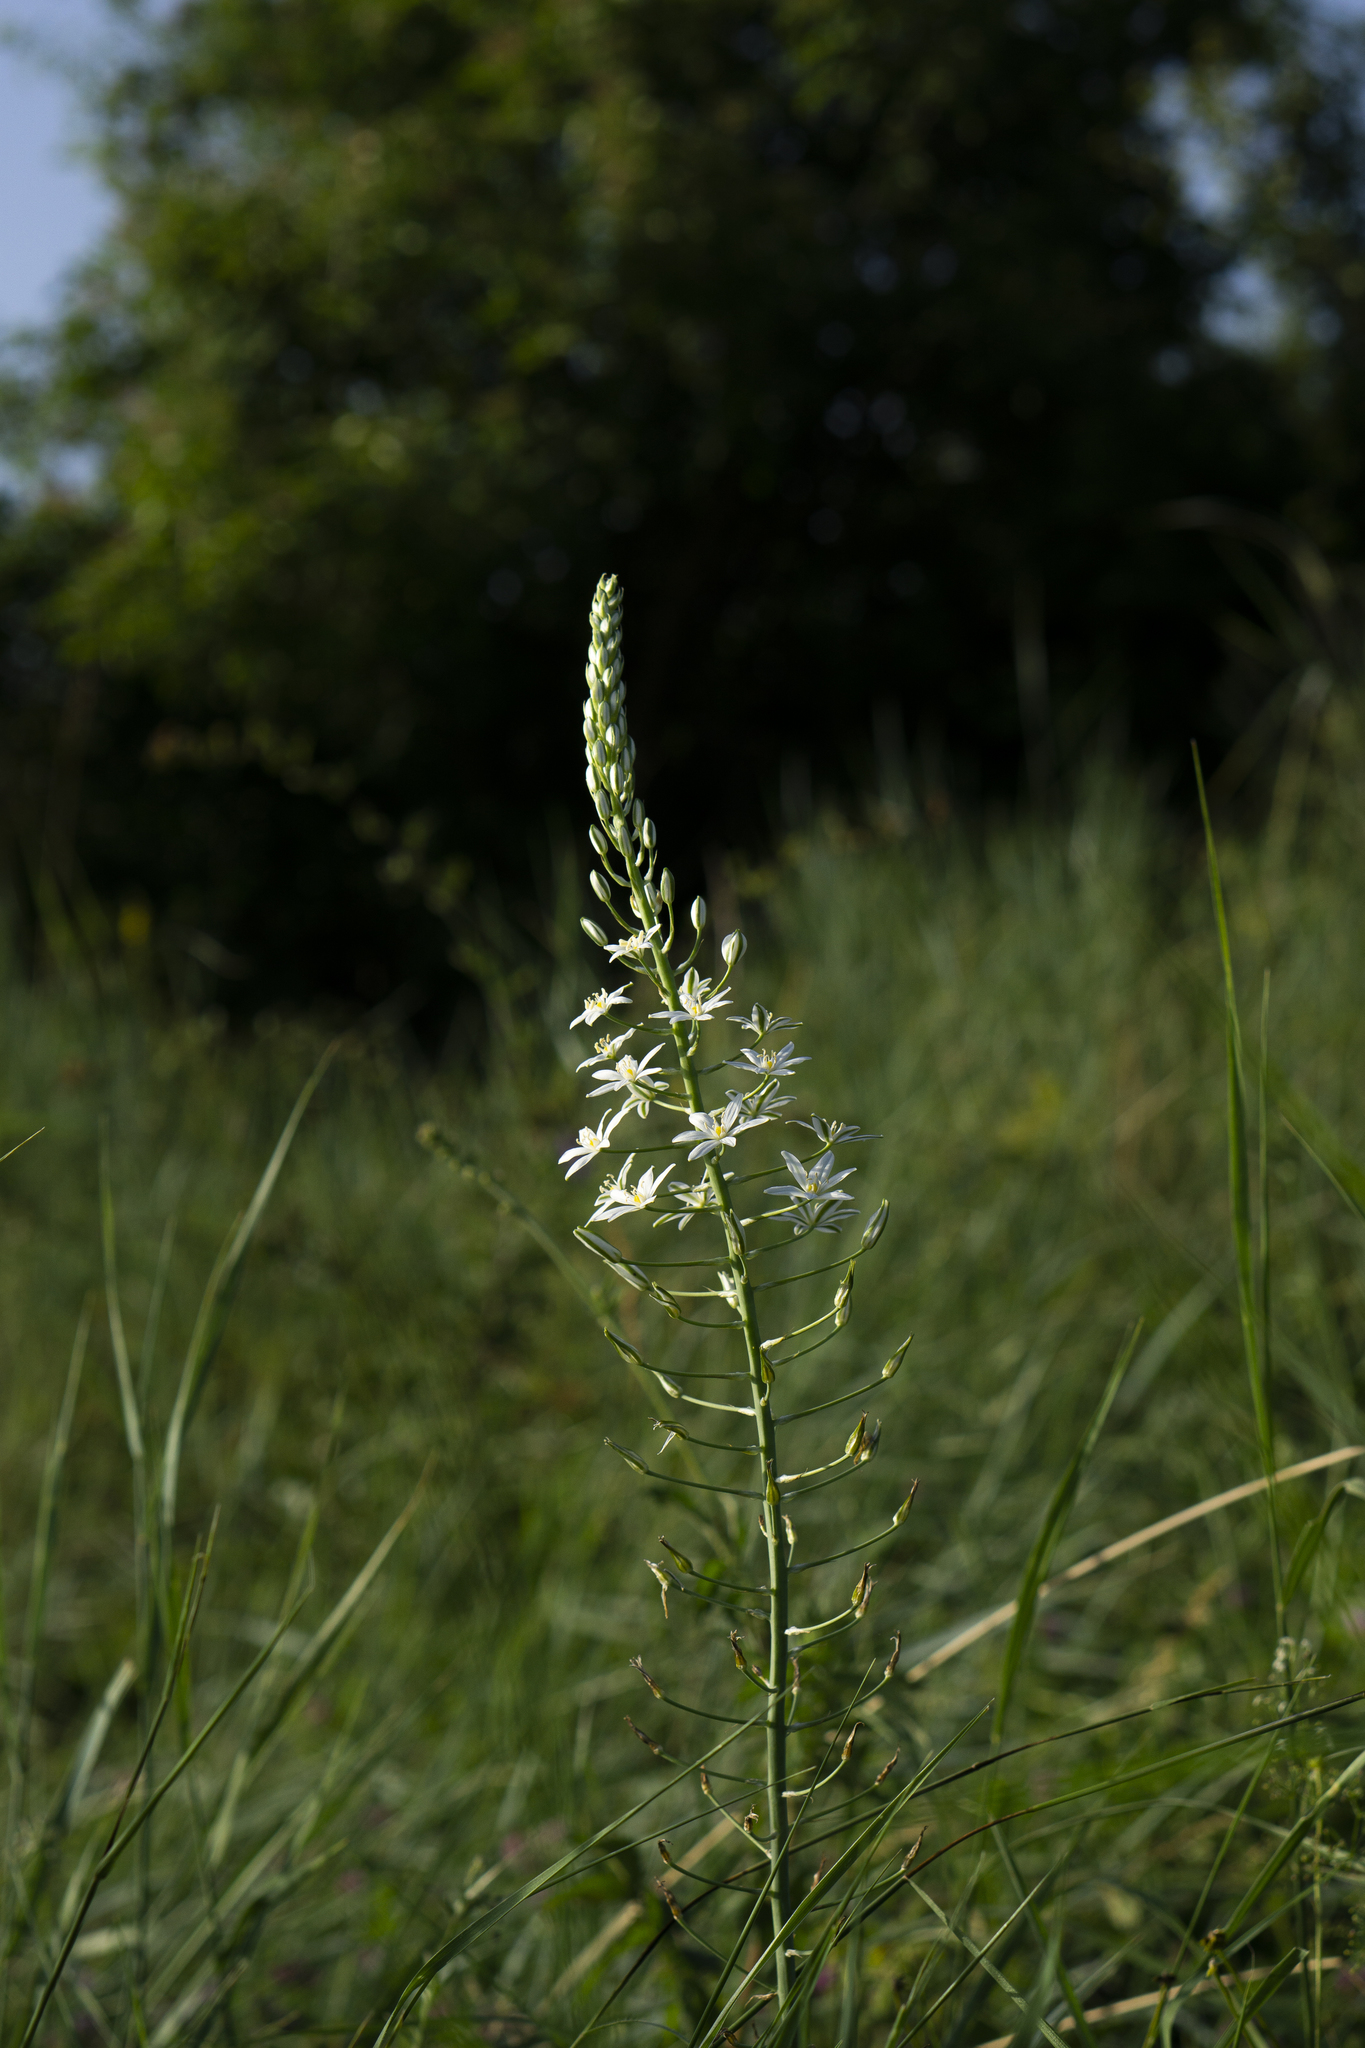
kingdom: Plantae
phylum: Tracheophyta
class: Liliopsida
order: Asparagales
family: Asparagaceae
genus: Ornithogalum
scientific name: Ornithogalum pyramidale
